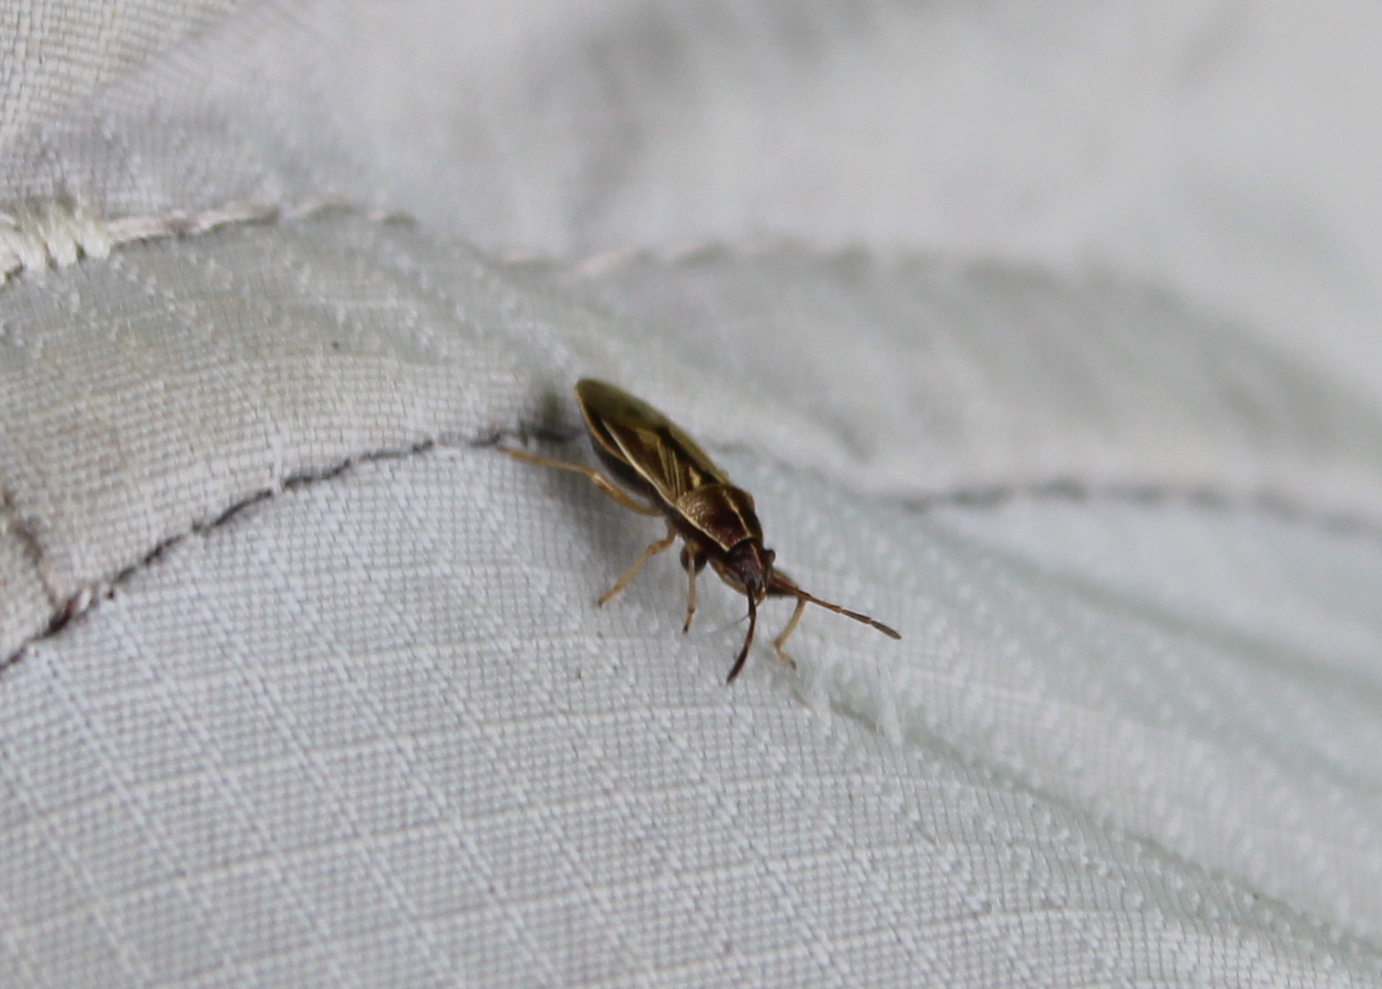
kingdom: Animalia
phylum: Arthropoda
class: Insecta
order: Hemiptera
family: Pachygronthidae
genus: Oedancala
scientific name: Oedancala dorsalis
